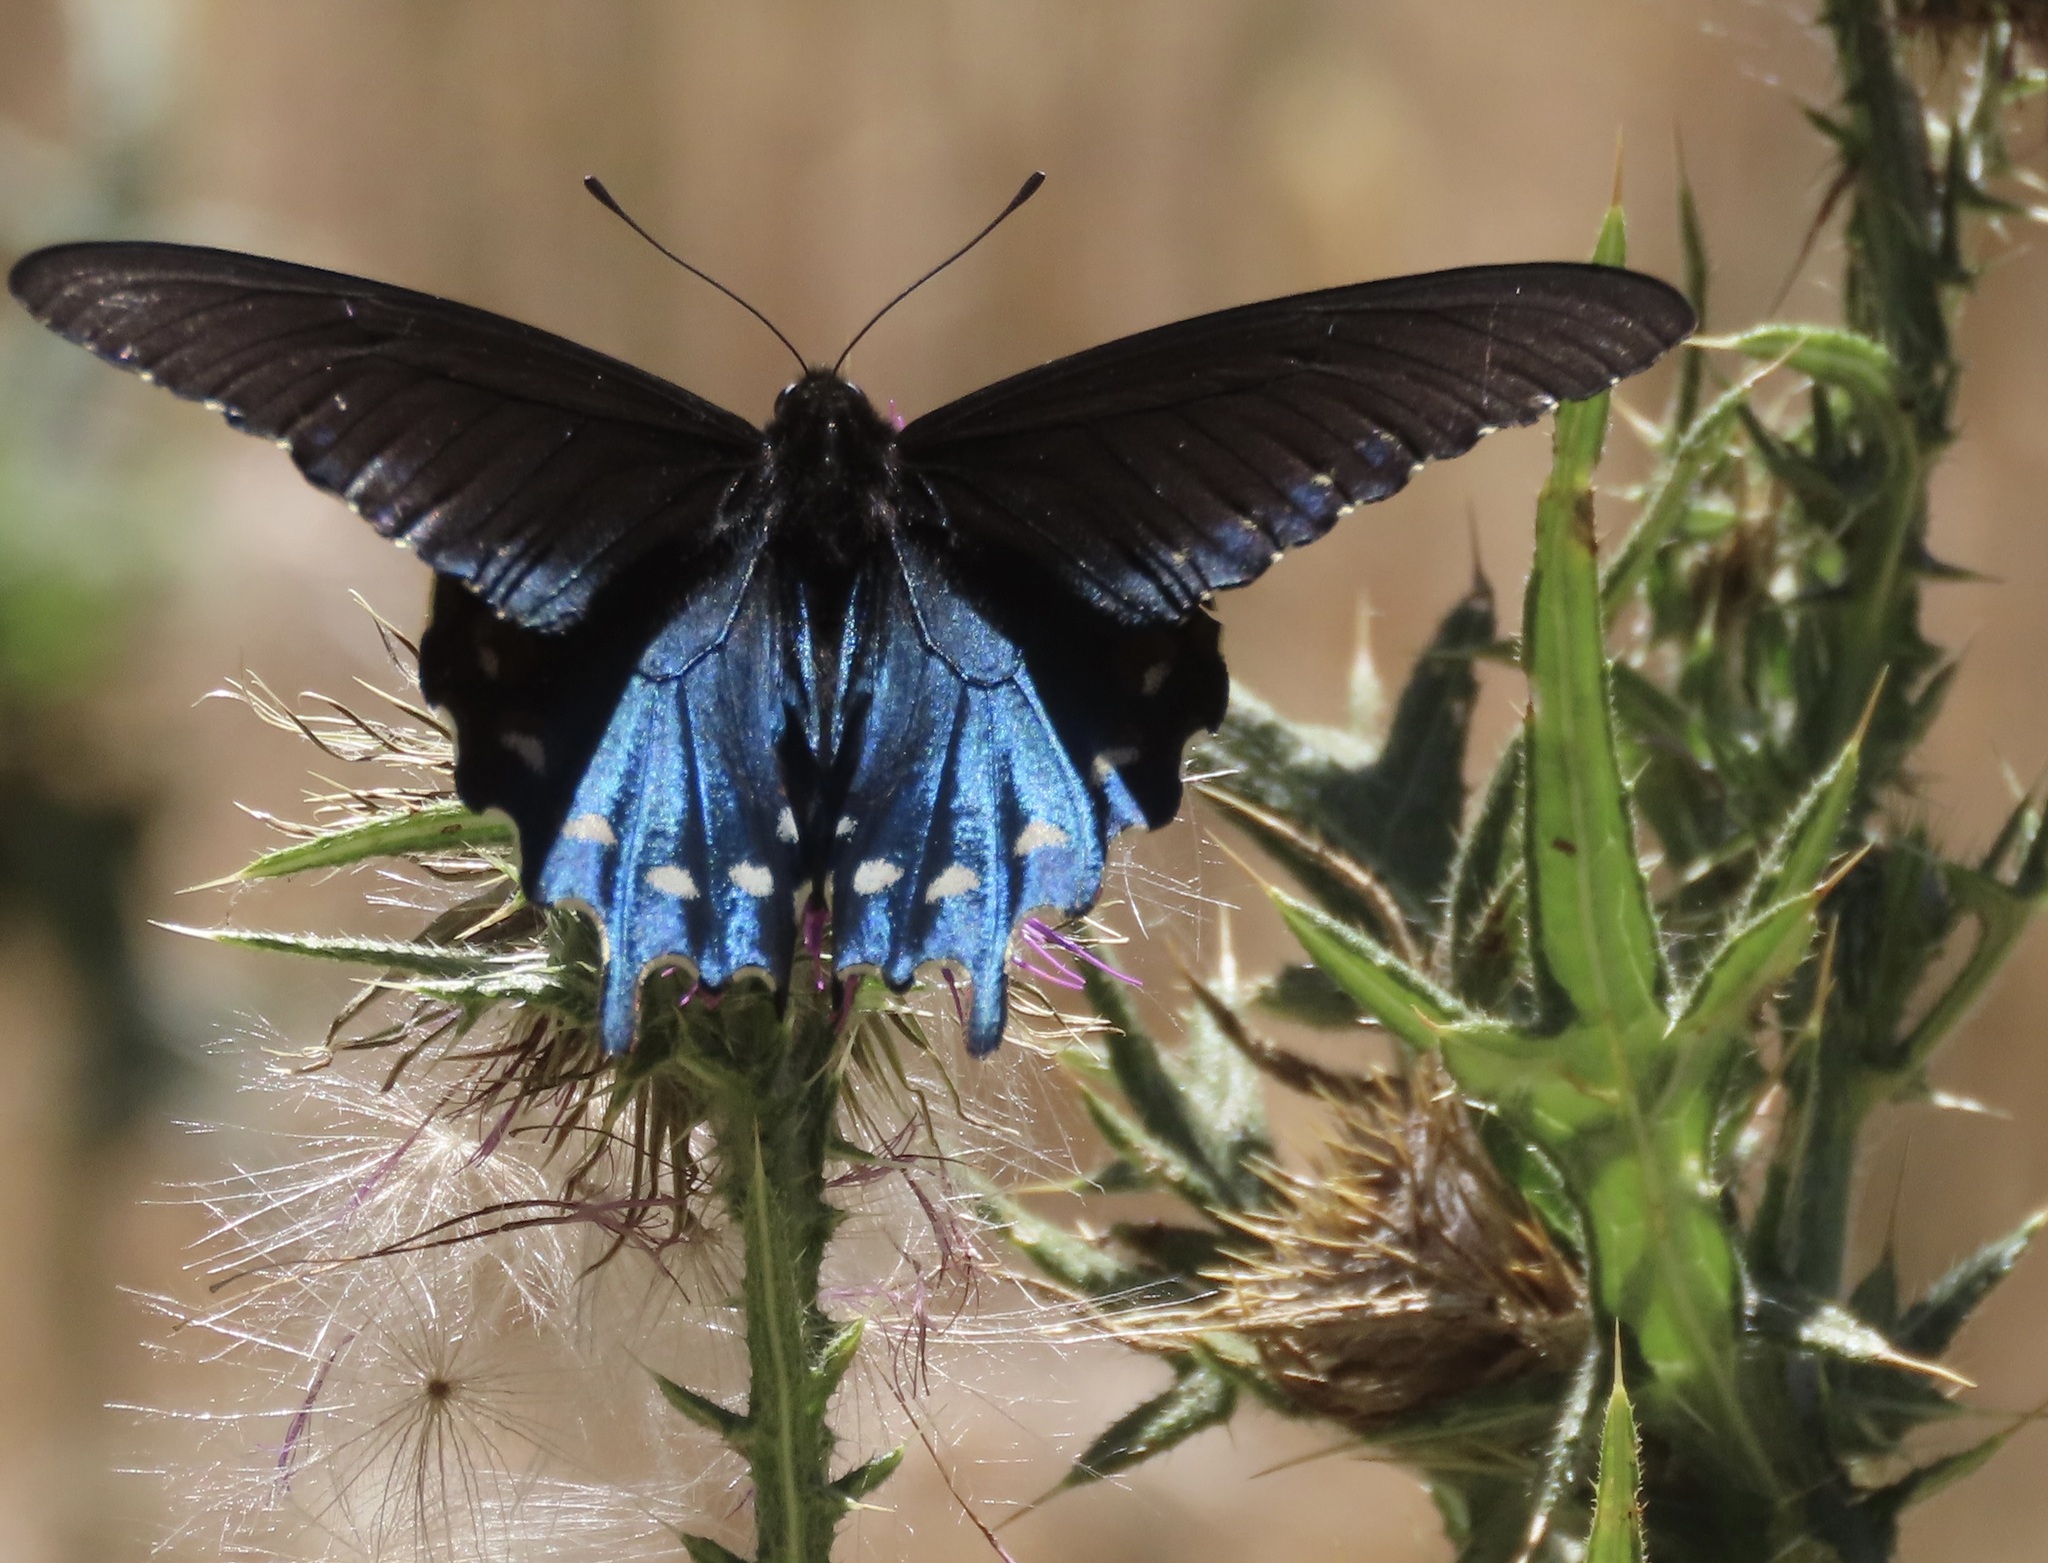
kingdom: Animalia
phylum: Arthropoda
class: Insecta
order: Lepidoptera
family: Papilionidae
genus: Battus
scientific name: Battus philenor
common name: Pipevine swallowtail
